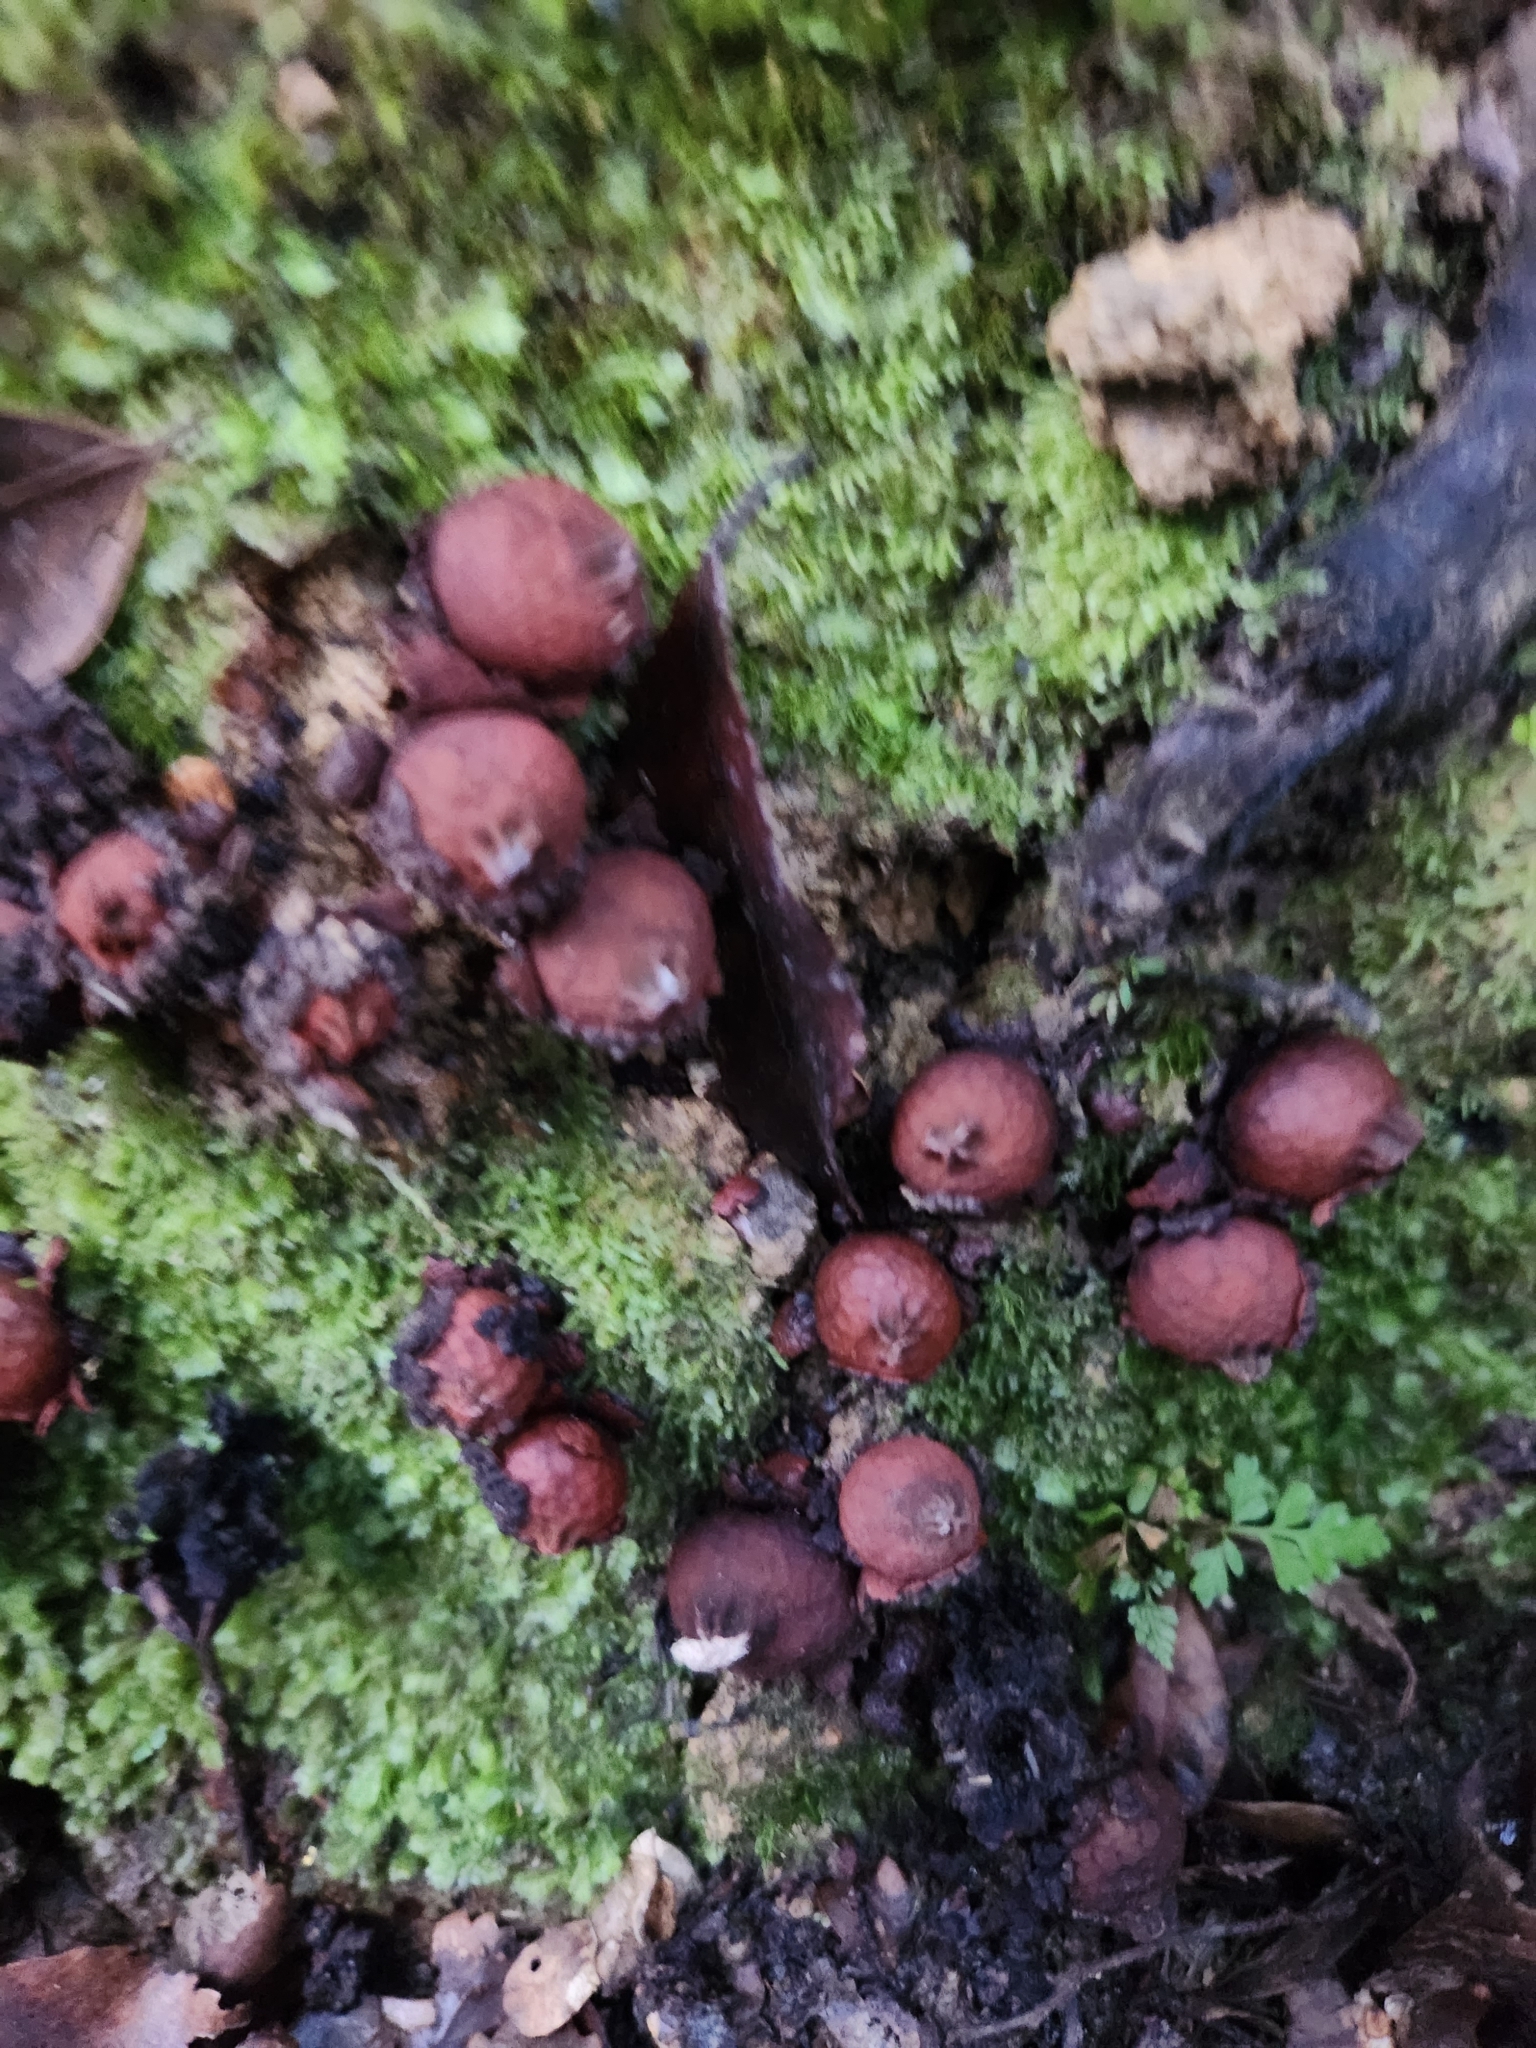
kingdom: Fungi
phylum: Basidiomycota
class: Agaricomycetes
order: Boletales
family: Calostomataceae
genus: Calostoma
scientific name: Calostoma fuscum
